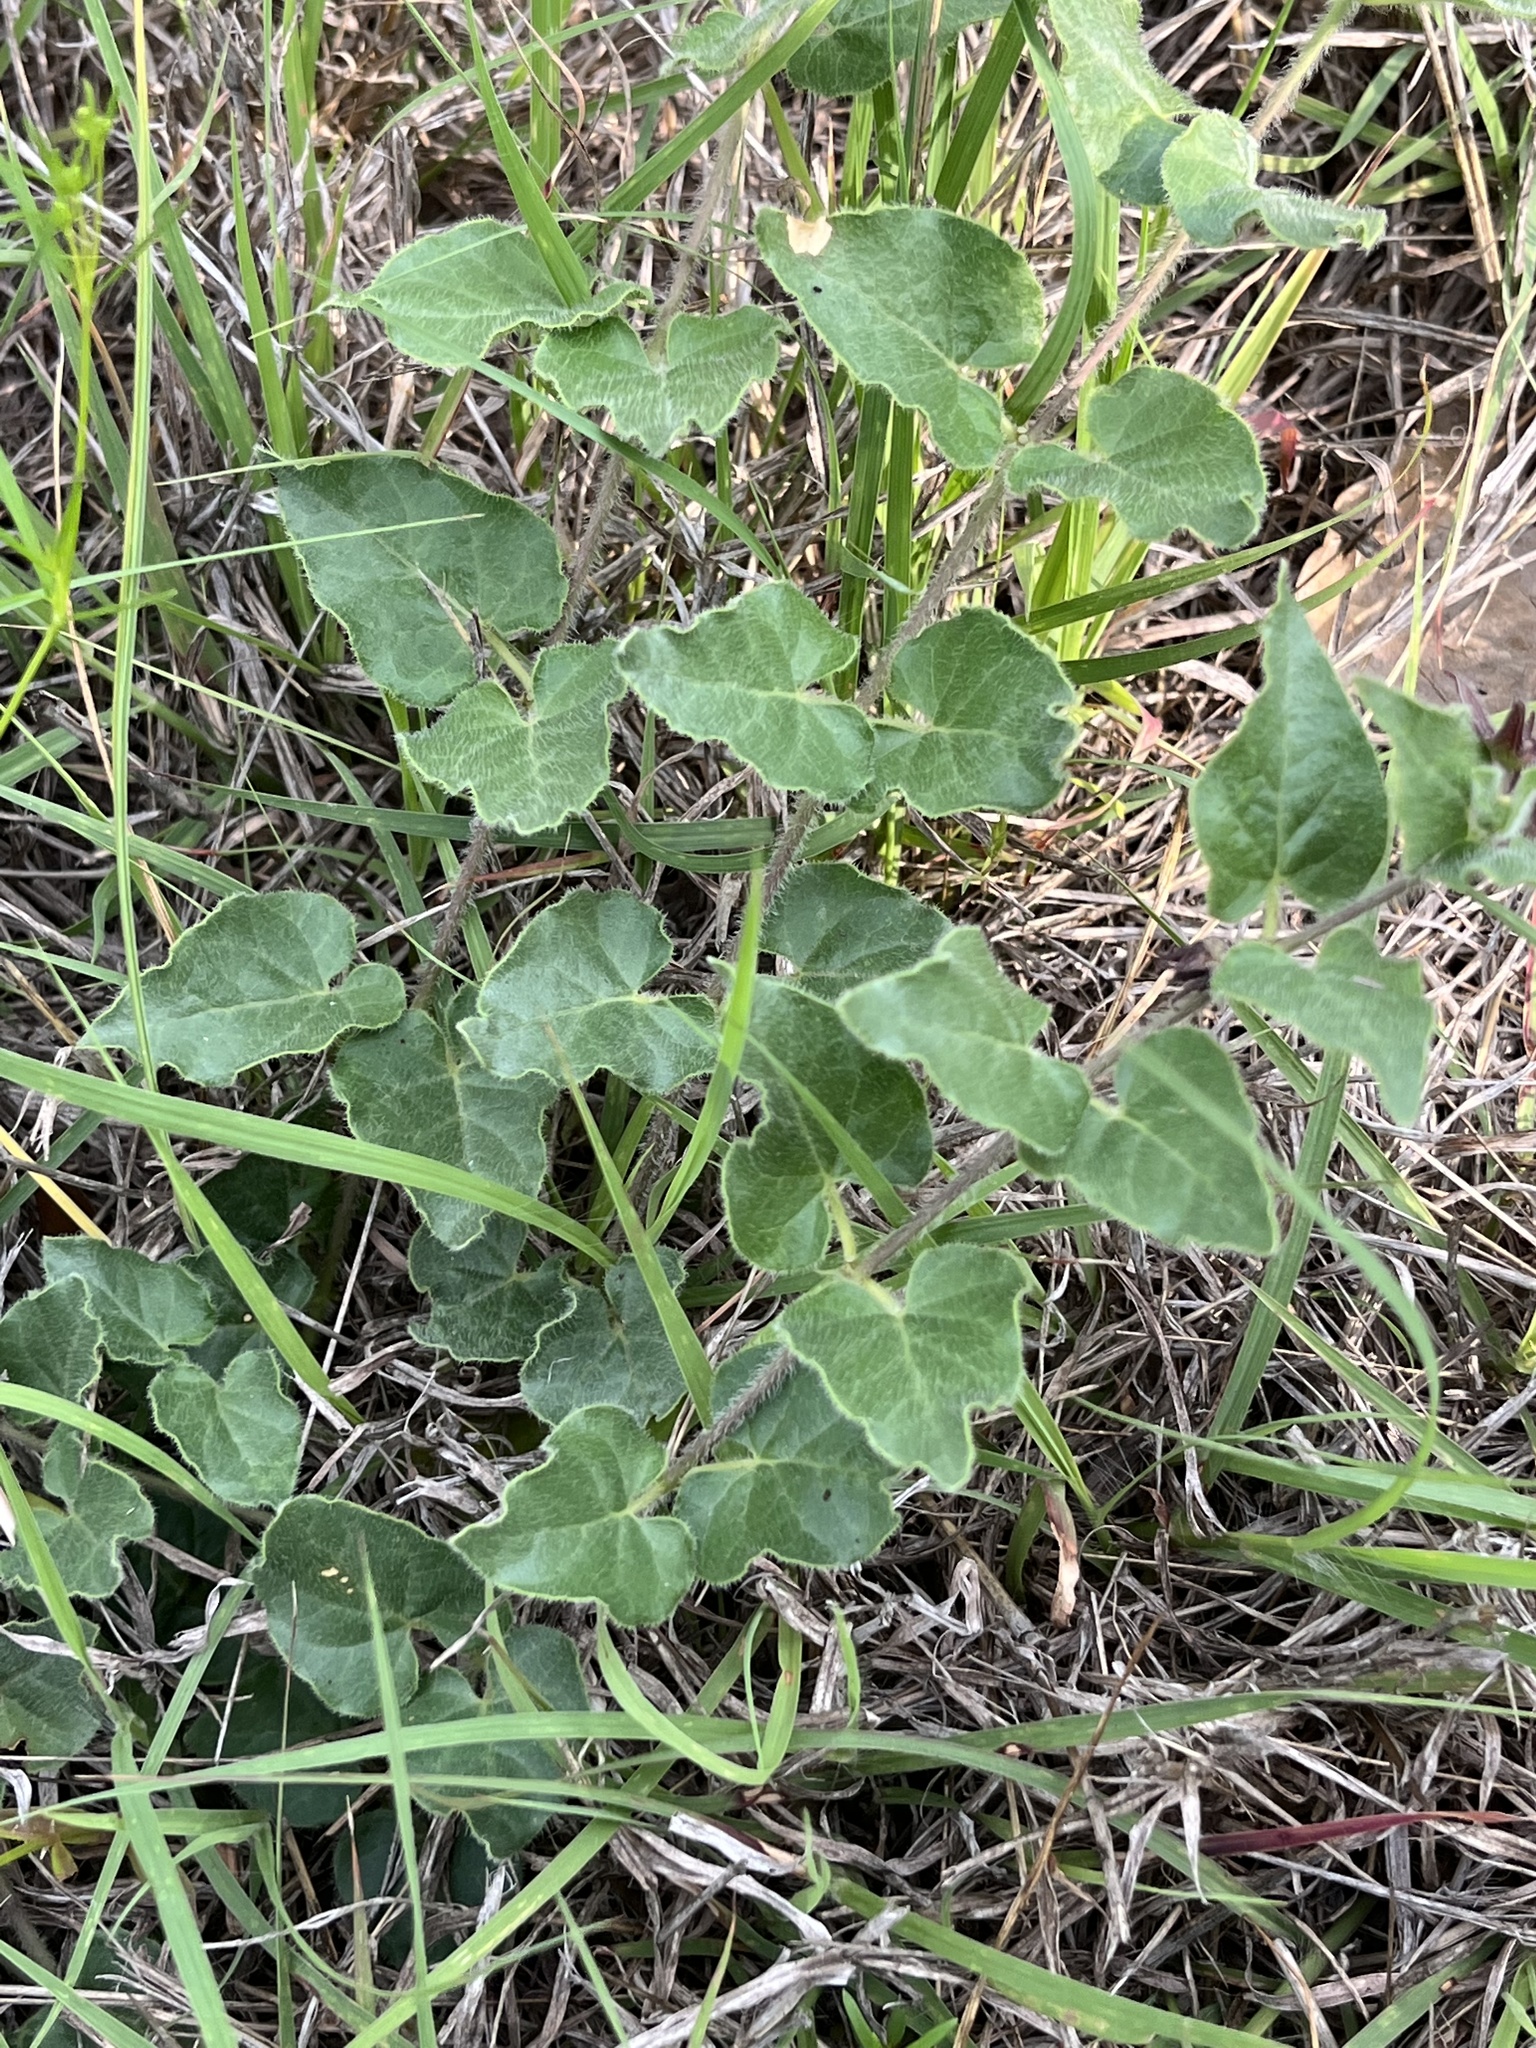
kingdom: Plantae
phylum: Tracheophyta
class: Magnoliopsida
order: Gentianales
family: Apocynaceae
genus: Chthamalia
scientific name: Chthamalia biflora
